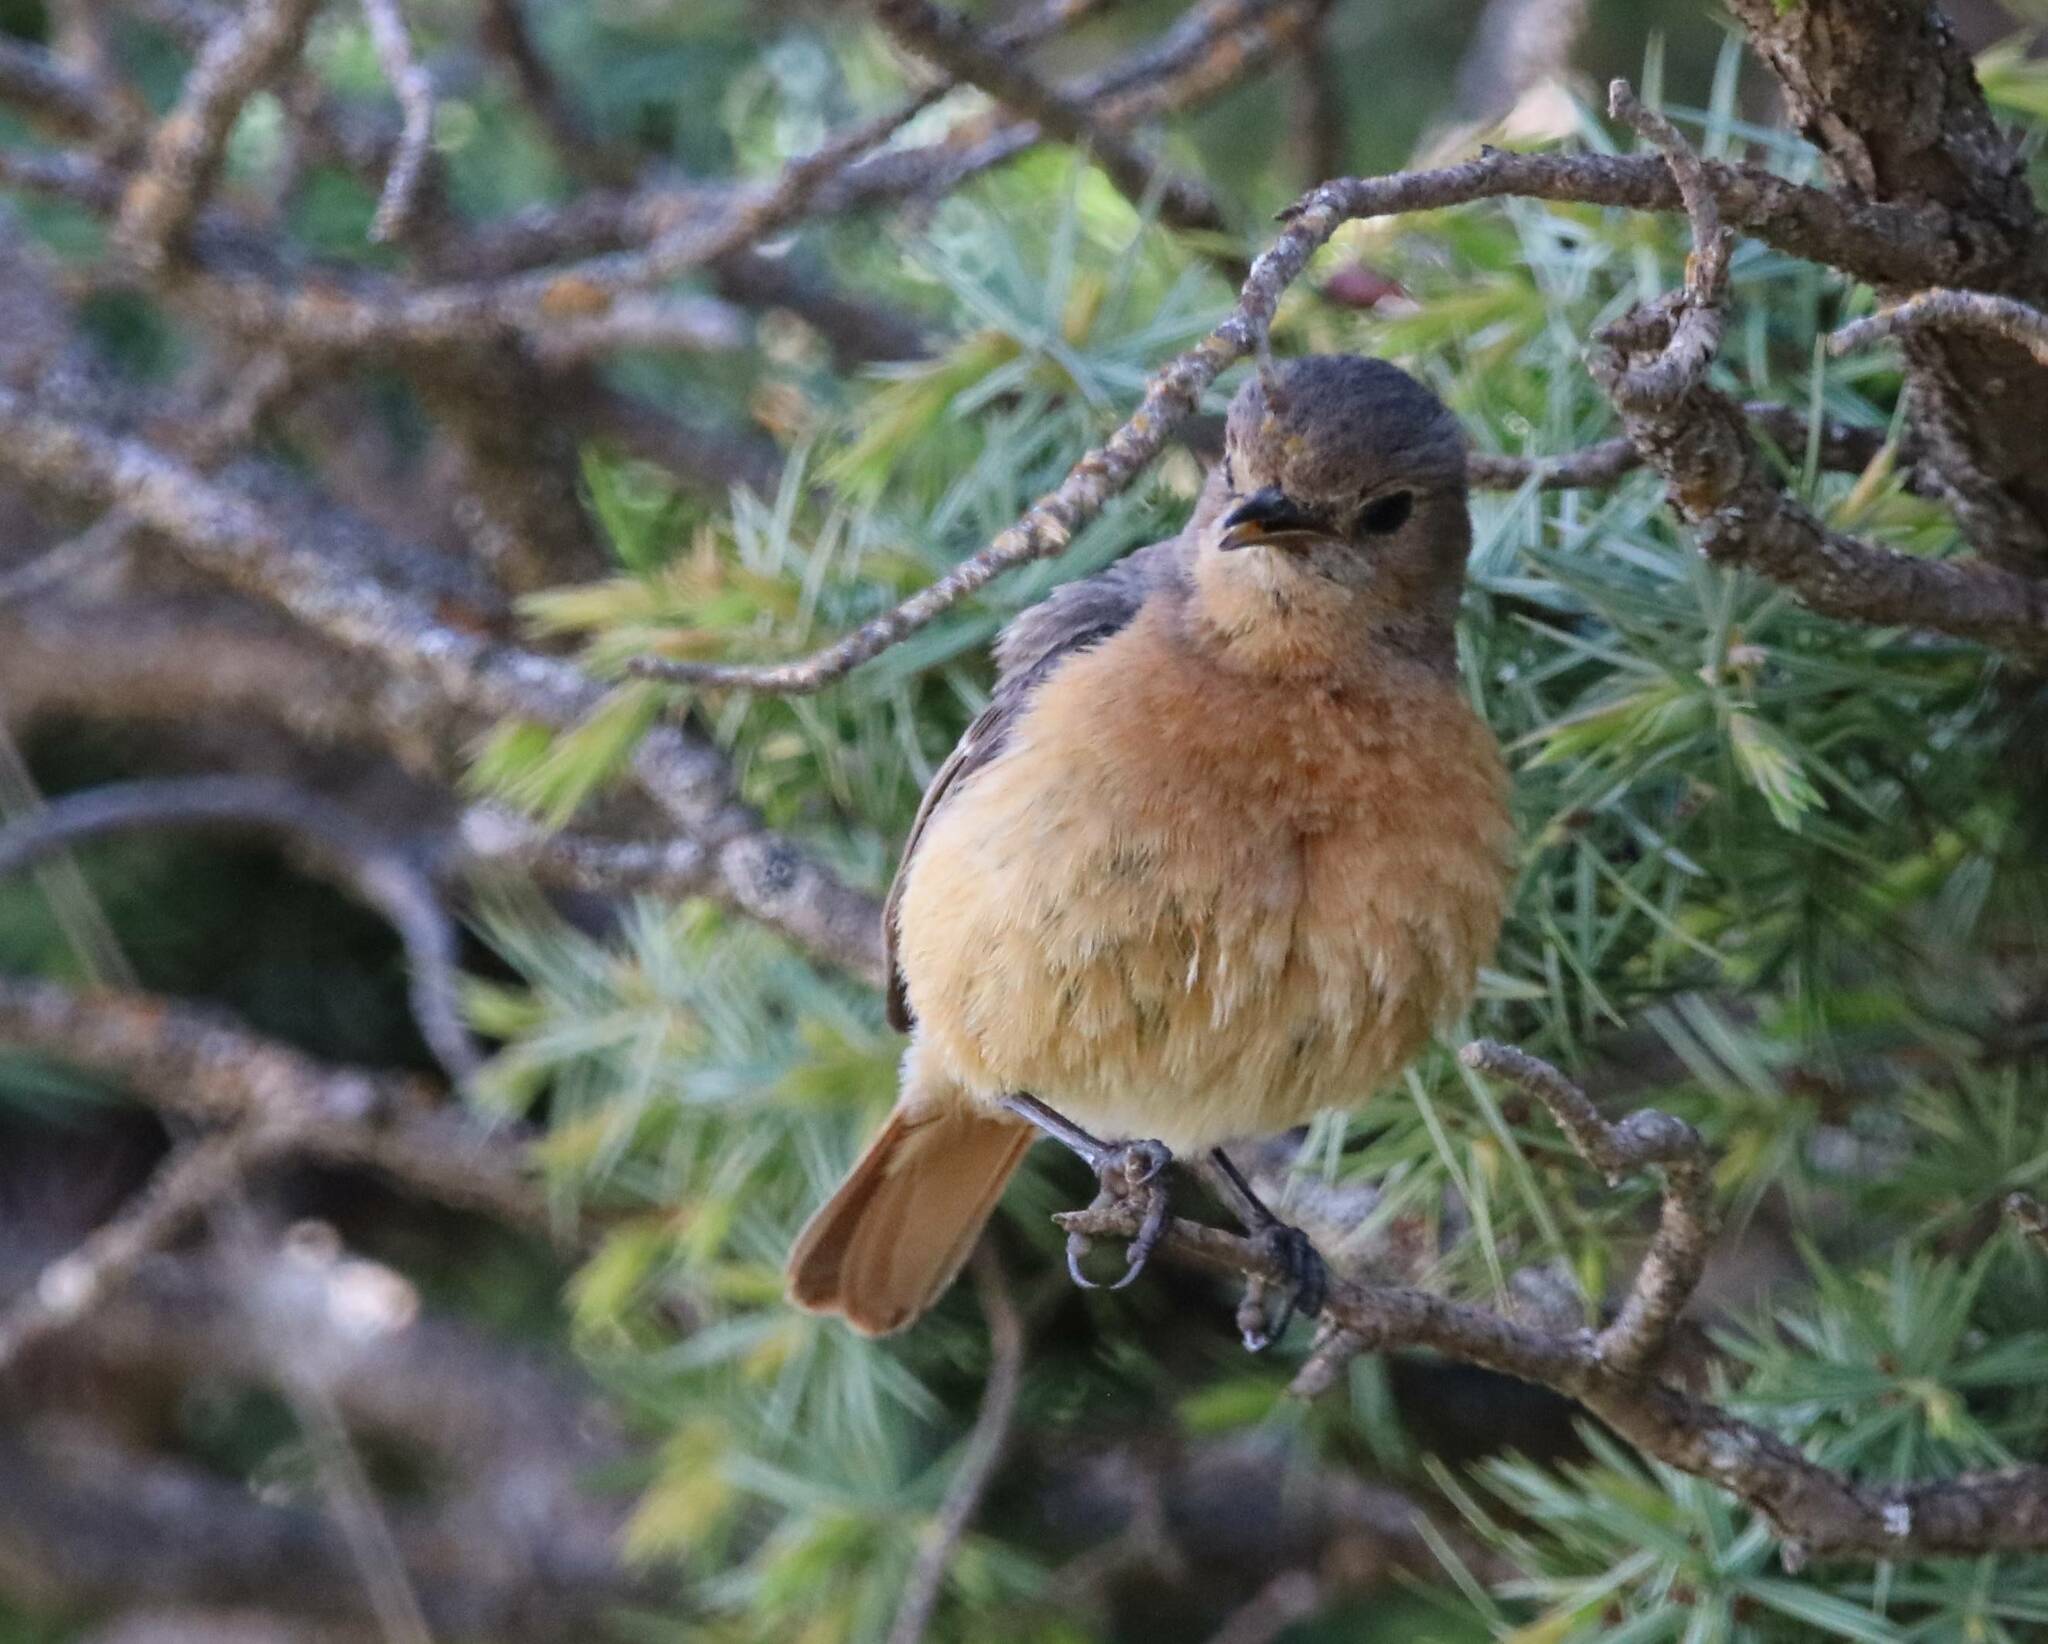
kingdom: Animalia
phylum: Chordata
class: Aves
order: Passeriformes
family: Muscicapidae
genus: Phoenicurus
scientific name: Phoenicurus moussieri
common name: Moussier's redstart
